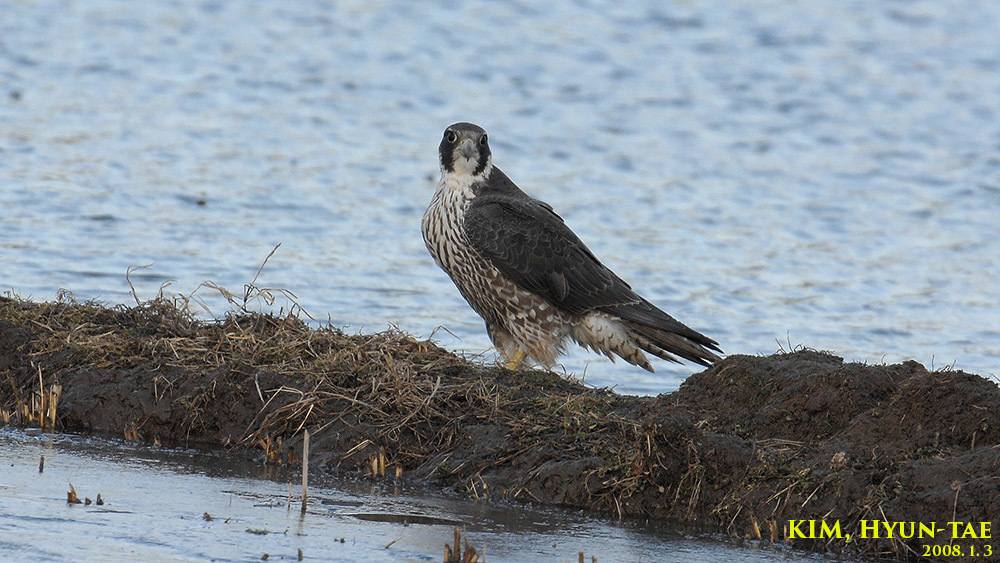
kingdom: Animalia
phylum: Chordata
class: Aves
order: Falconiformes
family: Falconidae
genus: Falco
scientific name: Falco peregrinus
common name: Peregrine falcon
